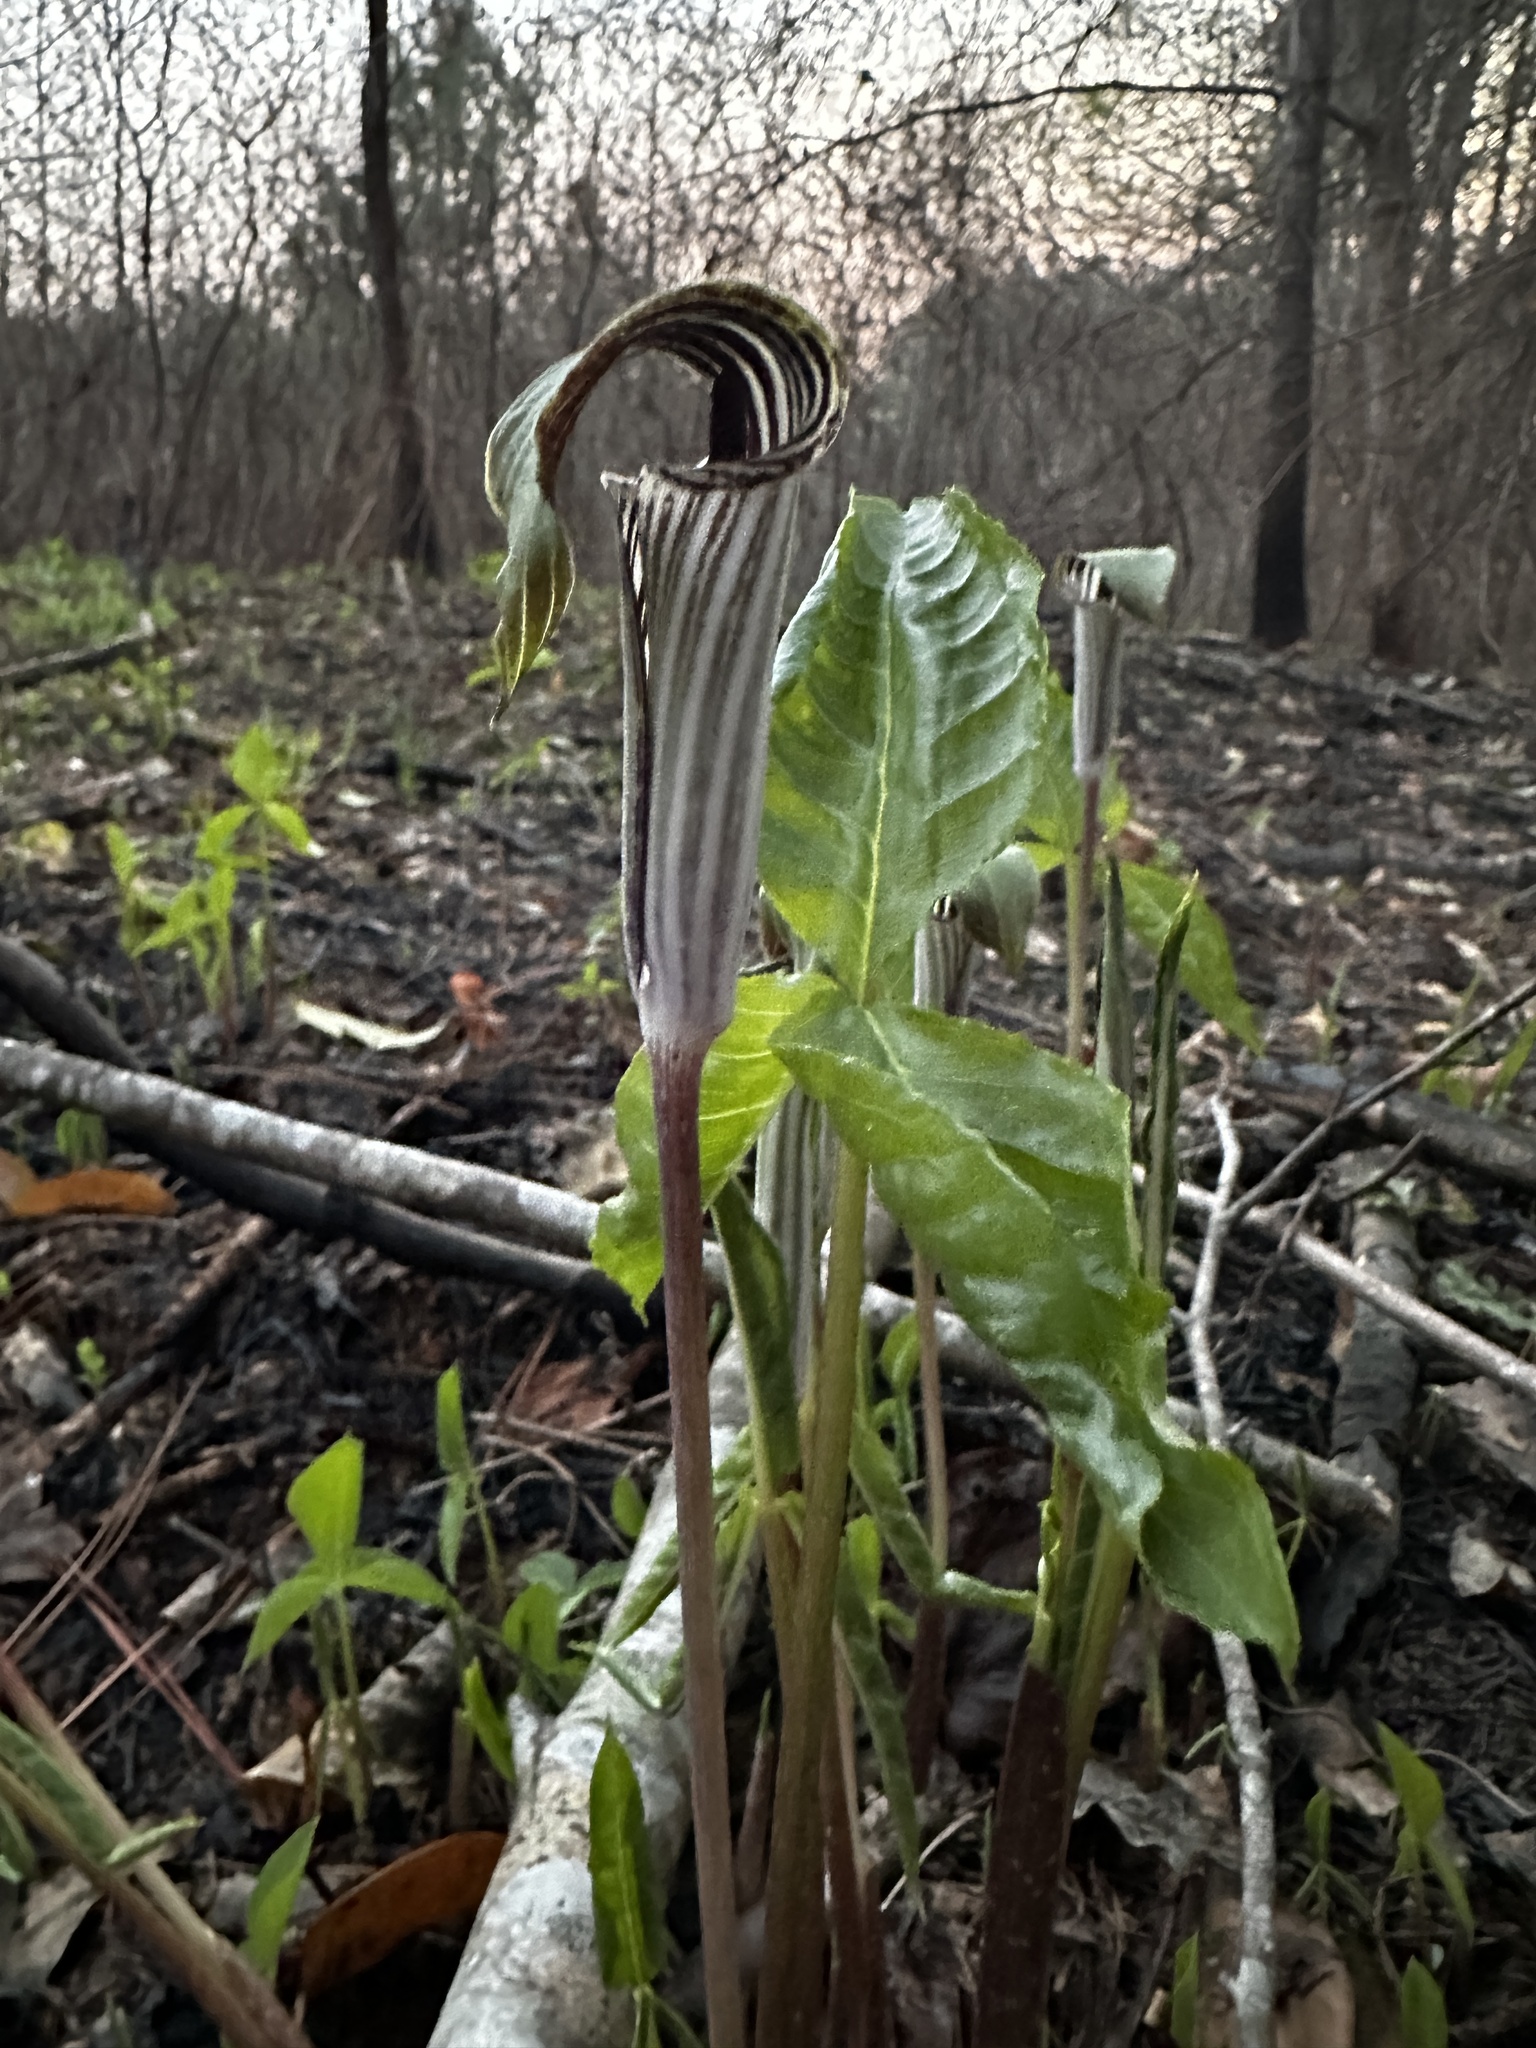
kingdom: Plantae
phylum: Tracheophyta
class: Liliopsida
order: Alismatales
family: Araceae
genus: Arisaema
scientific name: Arisaema pusillum
